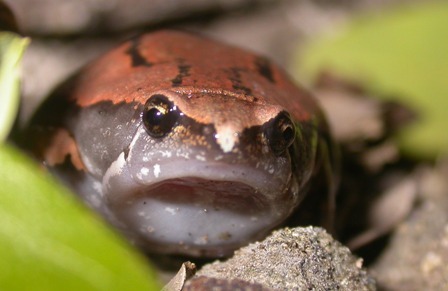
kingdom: Animalia
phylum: Chordata
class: Amphibia
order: Anura
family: Microhylidae
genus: Hypopachus
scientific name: Hypopachus variolosus
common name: Sheep frog
